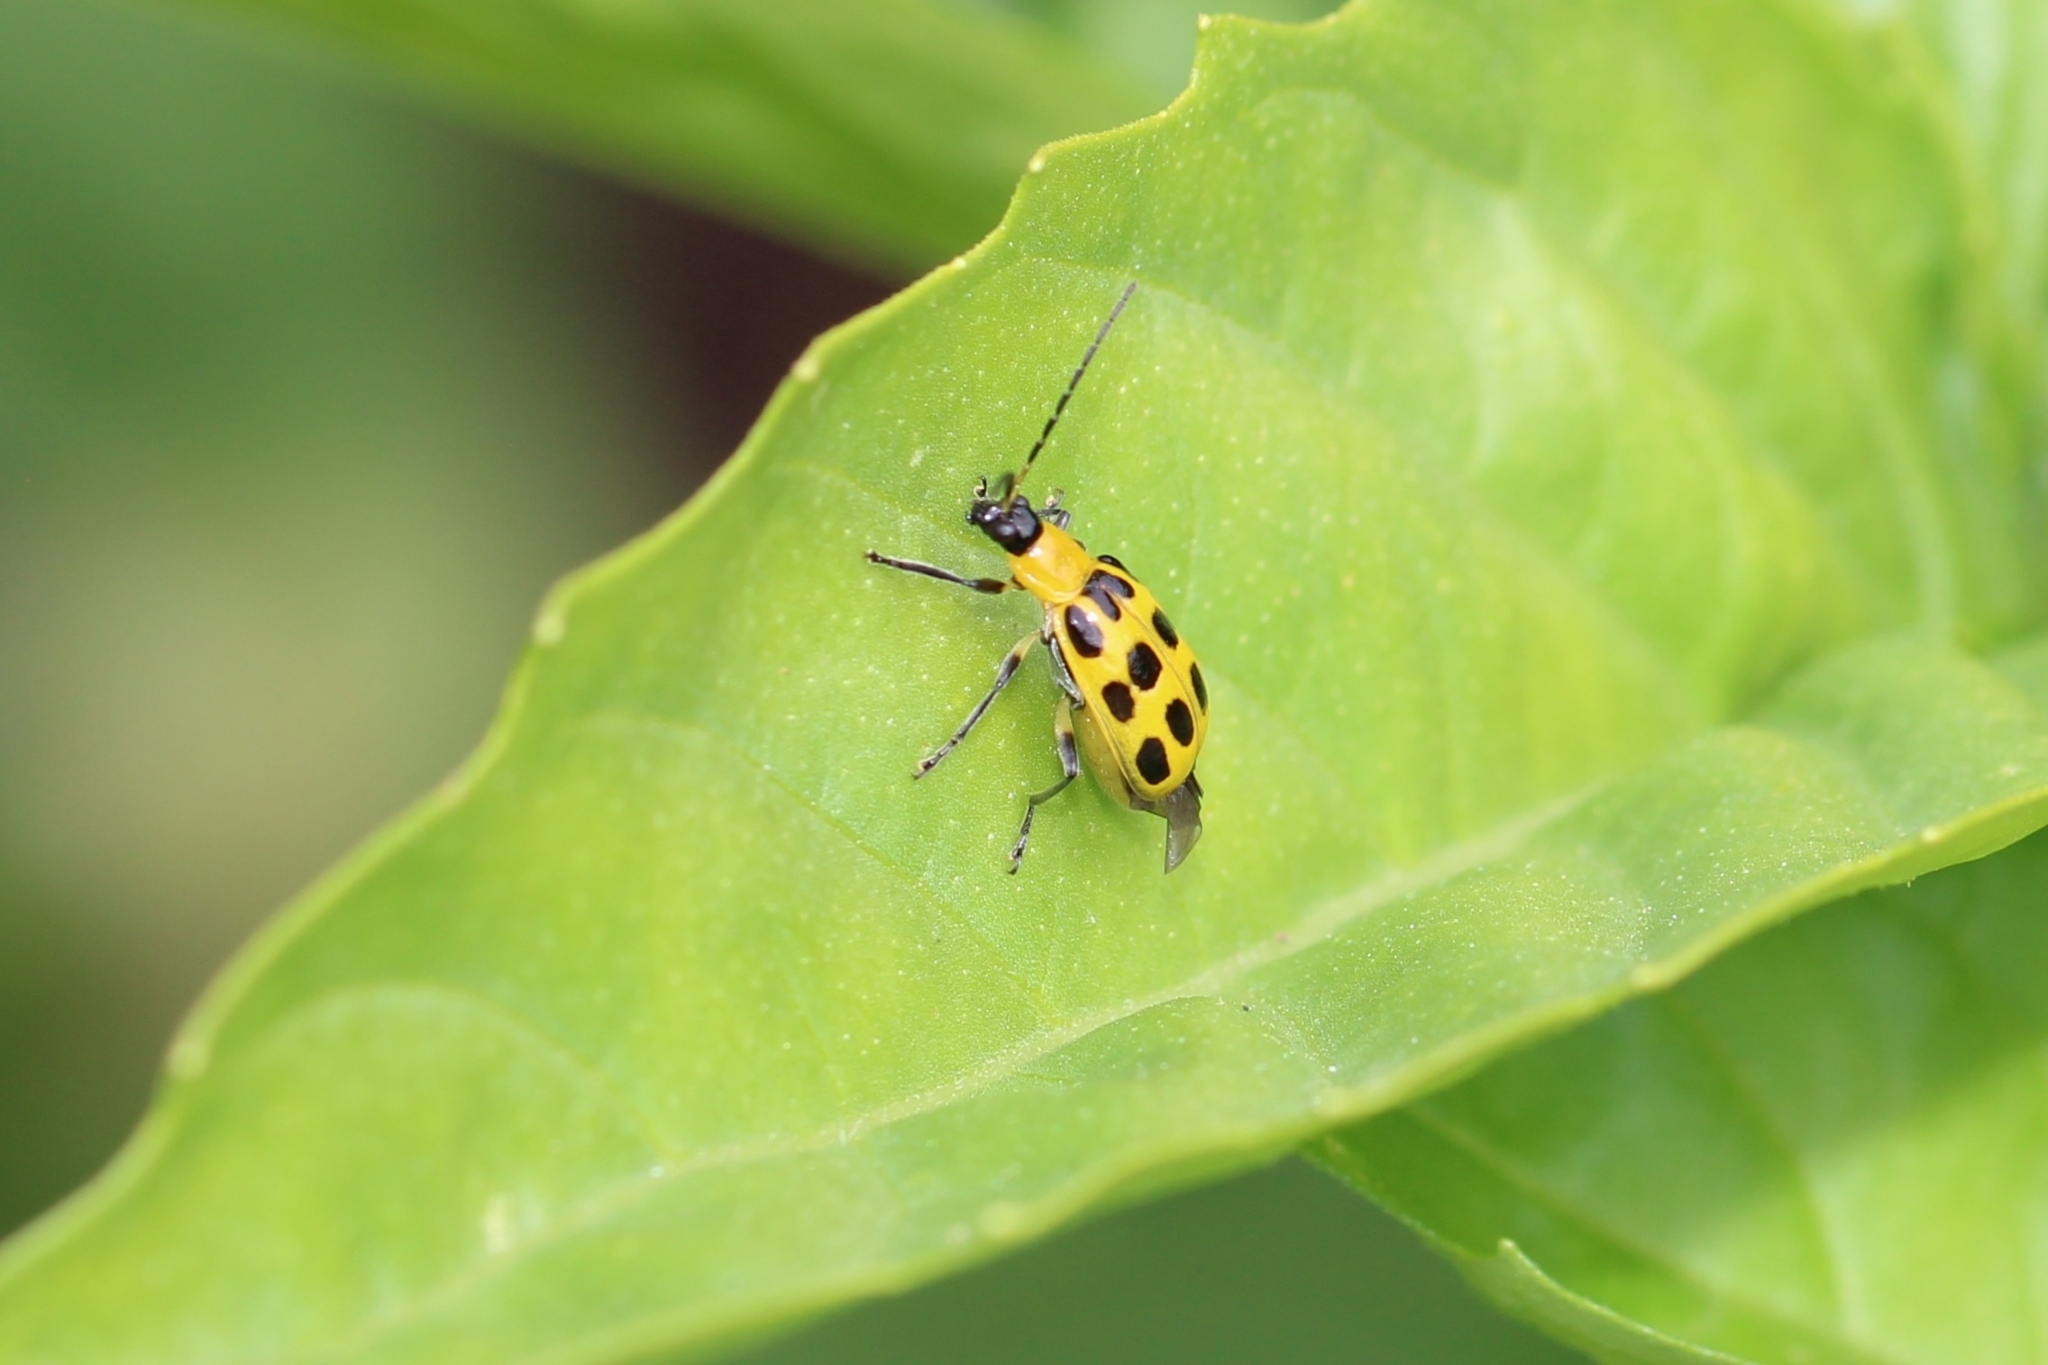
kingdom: Animalia
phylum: Arthropoda
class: Insecta
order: Coleoptera
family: Chrysomelidae
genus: Diabrotica
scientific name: Diabrotica undecimpunctata
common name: Spotted cucumber beetle
